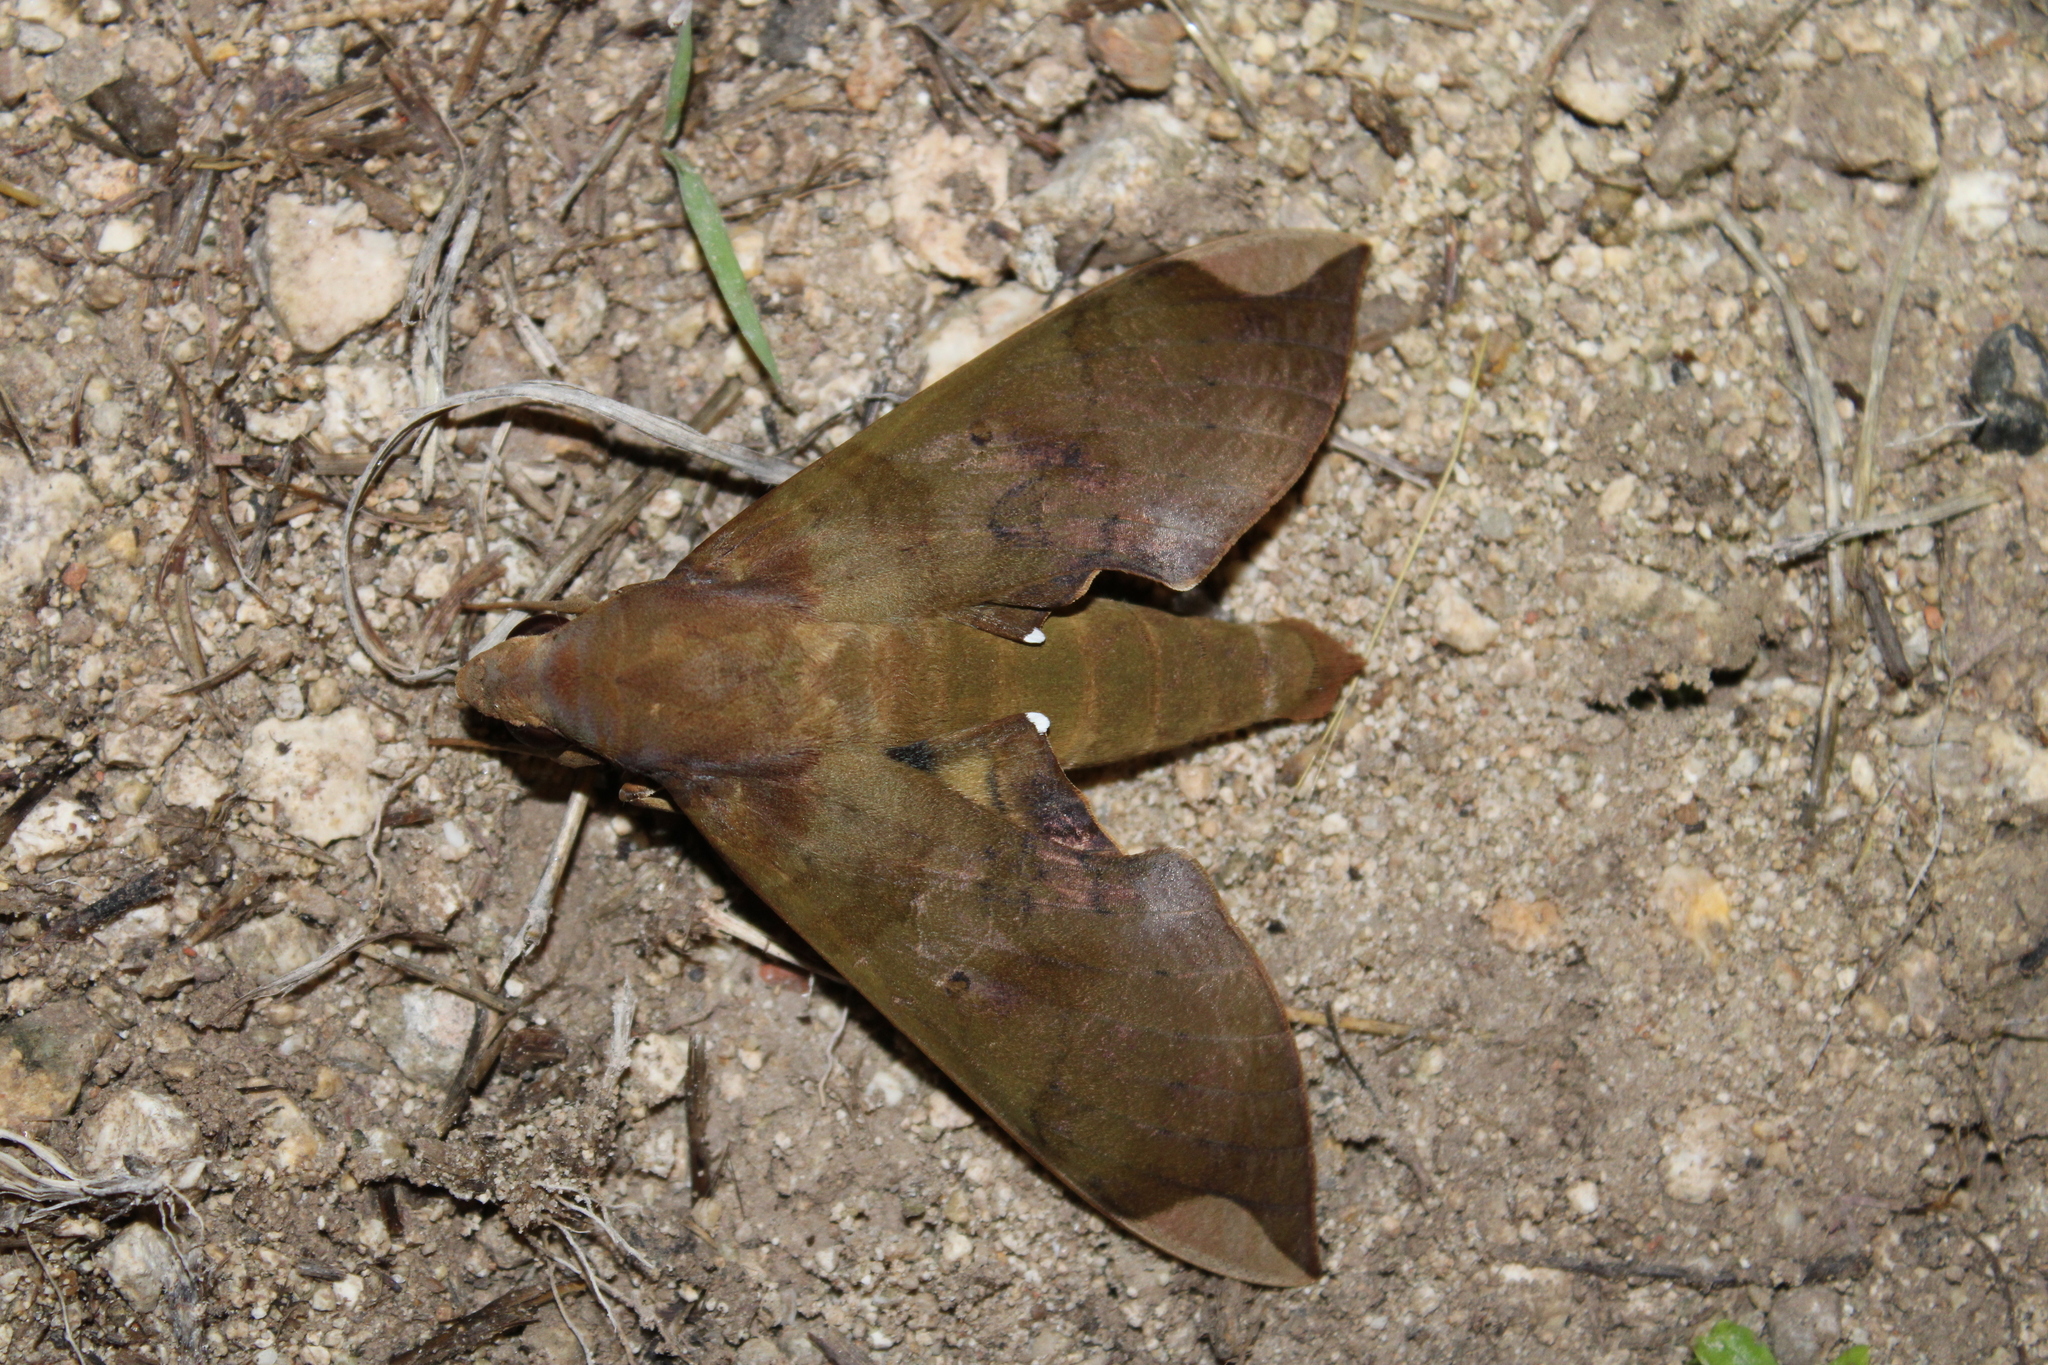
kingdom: Animalia
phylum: Arthropoda
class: Insecta
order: Lepidoptera
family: Sphingidae
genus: Pachylia
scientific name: Pachylia ficus
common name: Fig sphinx
